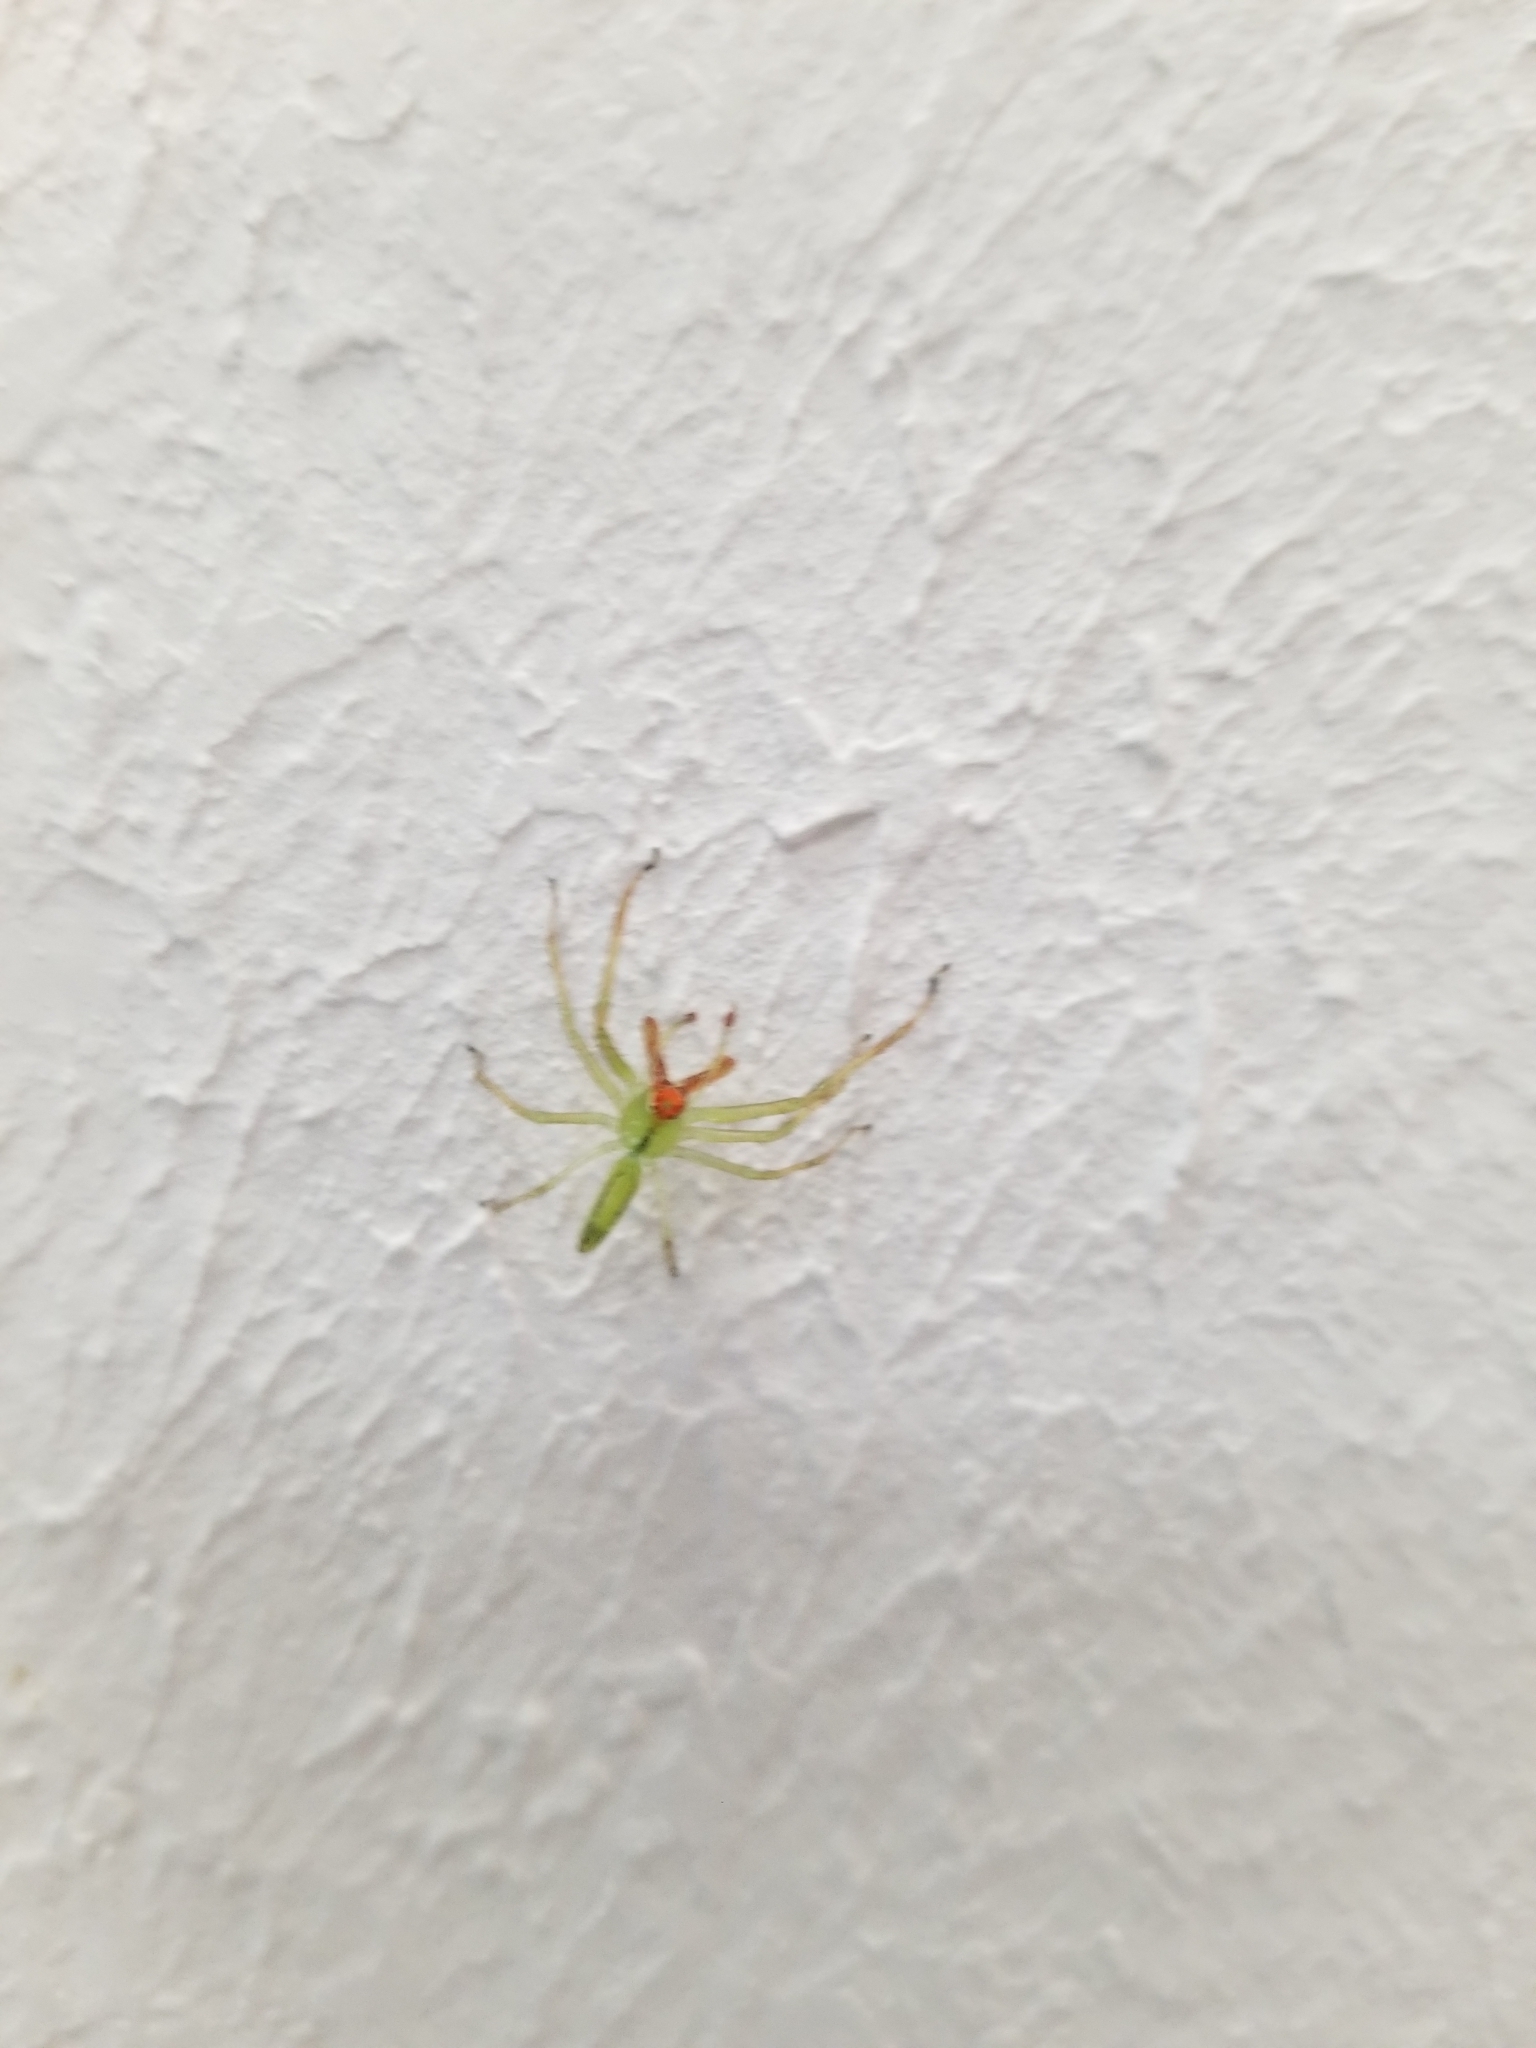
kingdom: Animalia
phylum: Arthropoda
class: Arachnida
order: Araneae
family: Salticidae
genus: Lyssomanes
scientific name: Lyssomanes viridis
